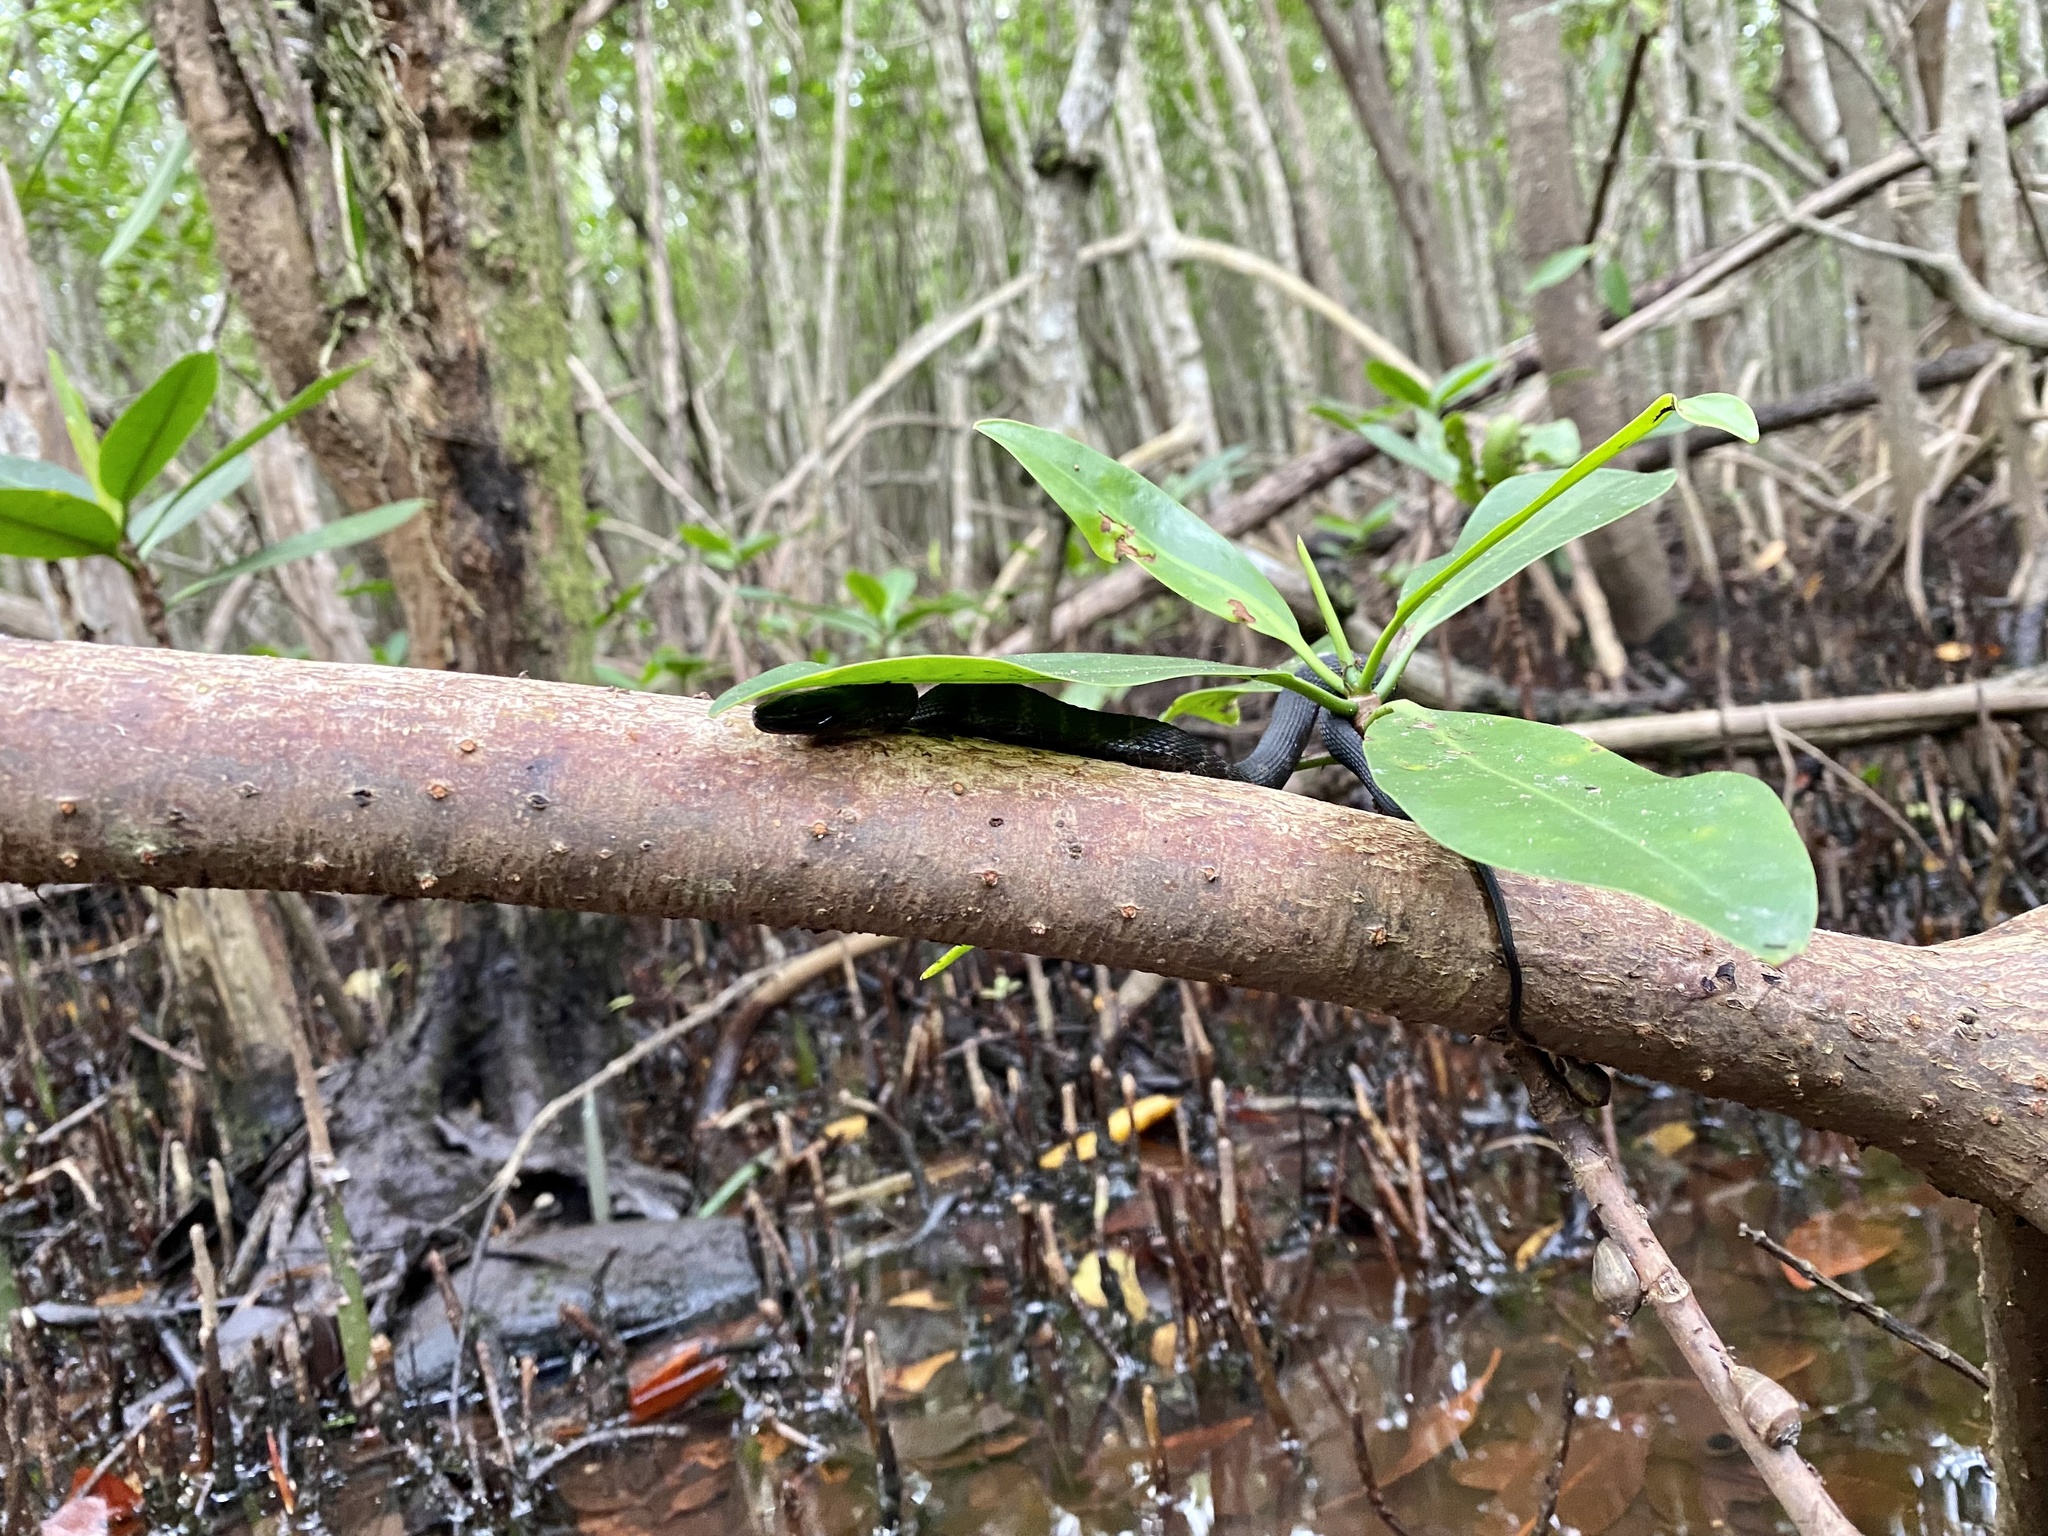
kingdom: Animalia
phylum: Chordata
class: Squamata
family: Colubridae
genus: Nerodia
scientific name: Nerodia clarkii
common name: Atlantic saltmarsh snake
